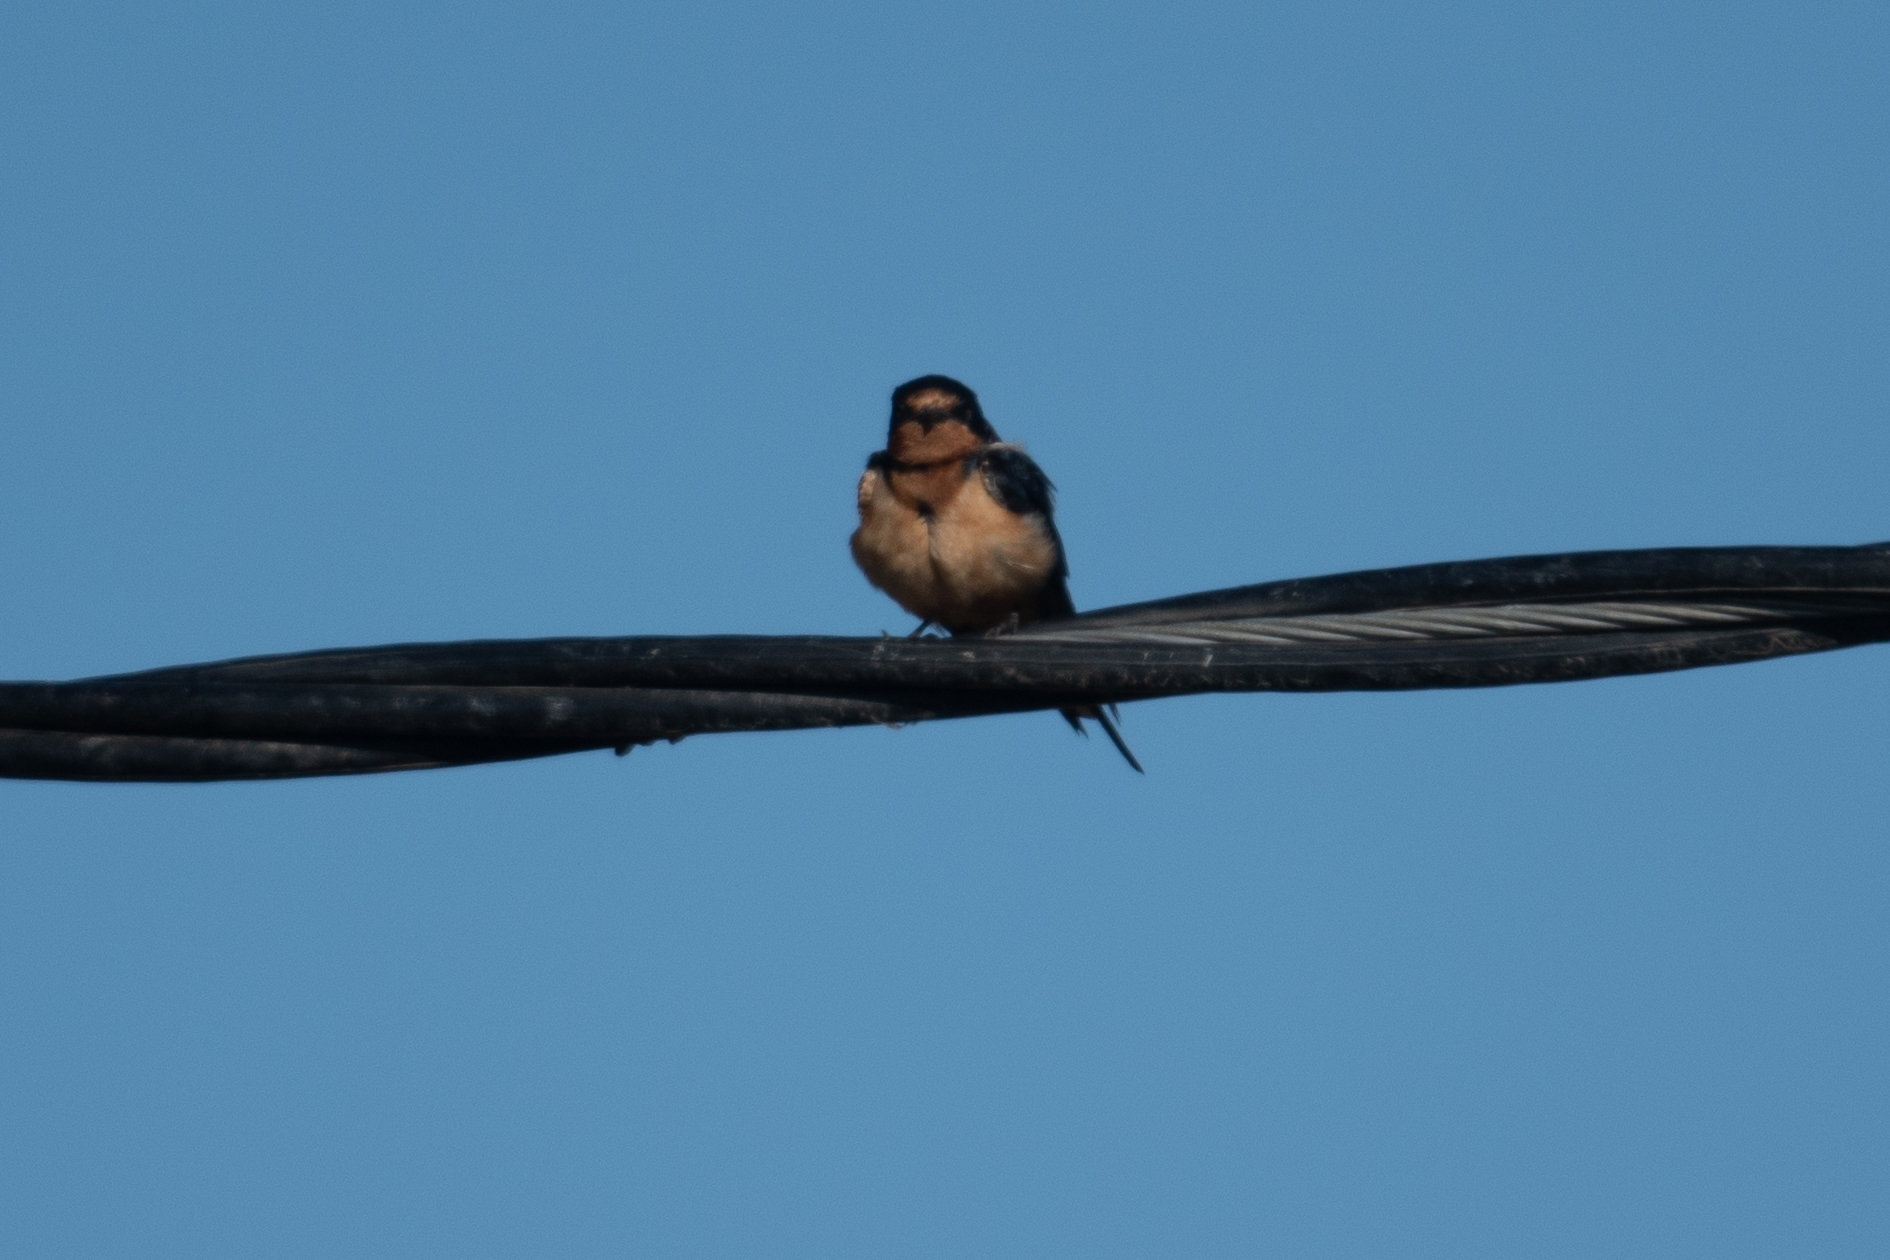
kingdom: Animalia
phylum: Chordata
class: Aves
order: Passeriformes
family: Hirundinidae
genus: Hirundo
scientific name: Hirundo rustica
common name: Barn swallow
